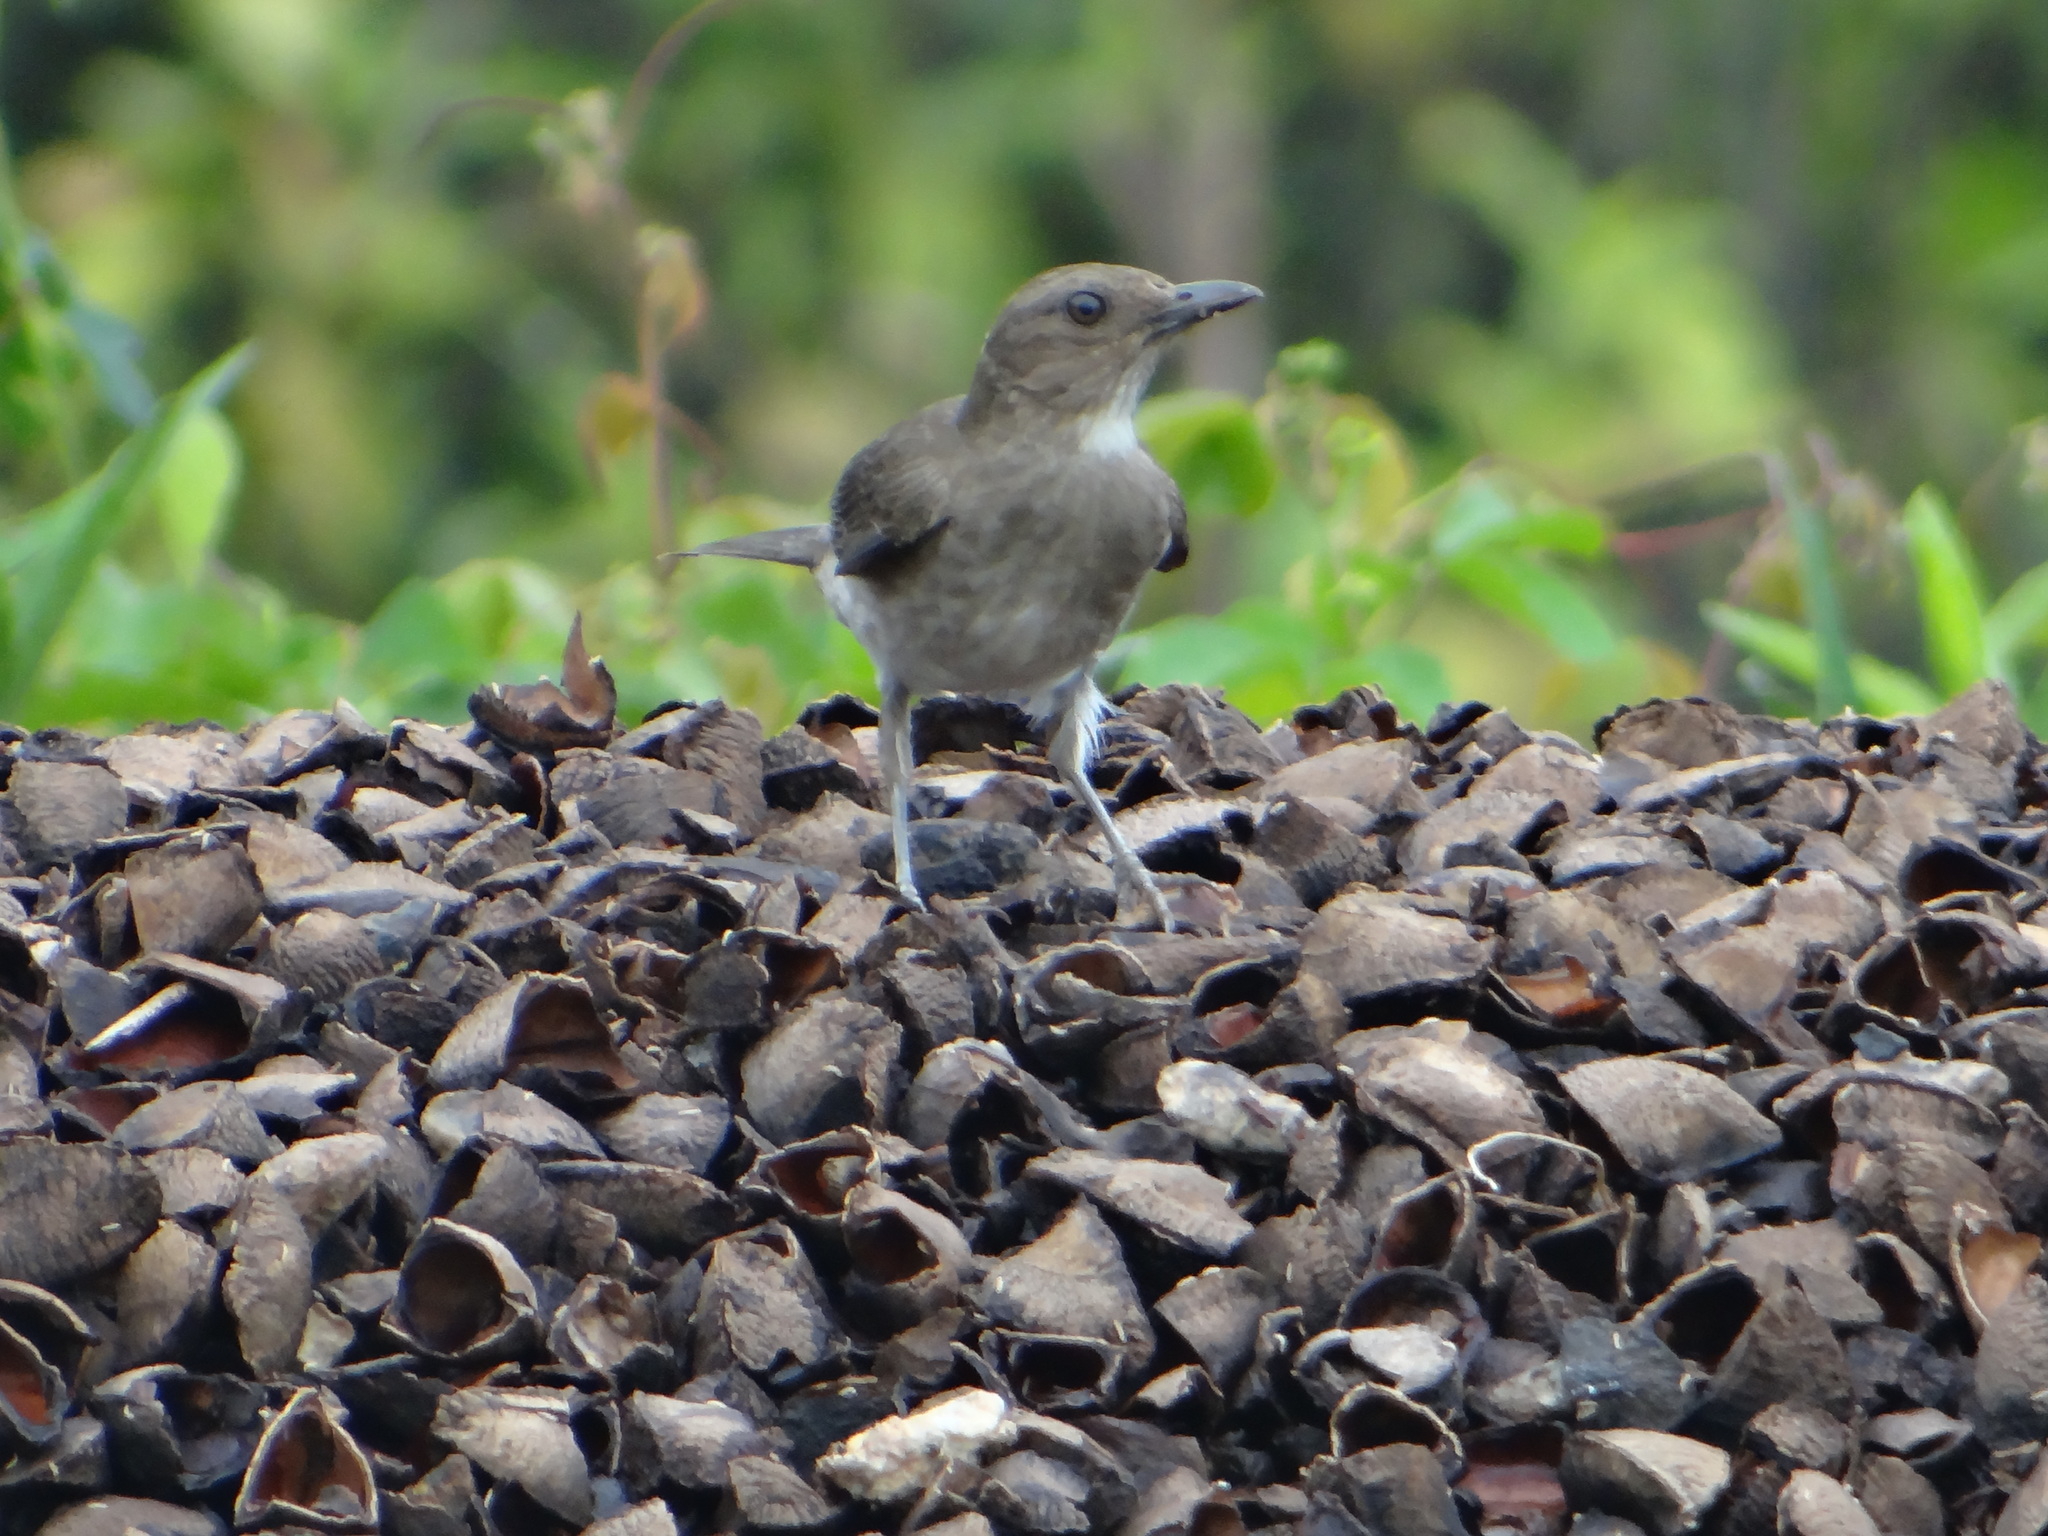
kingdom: Animalia
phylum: Chordata
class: Aves
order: Passeriformes
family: Turdidae
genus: Turdus
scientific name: Turdus ignobilis
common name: Black-billed thrush
